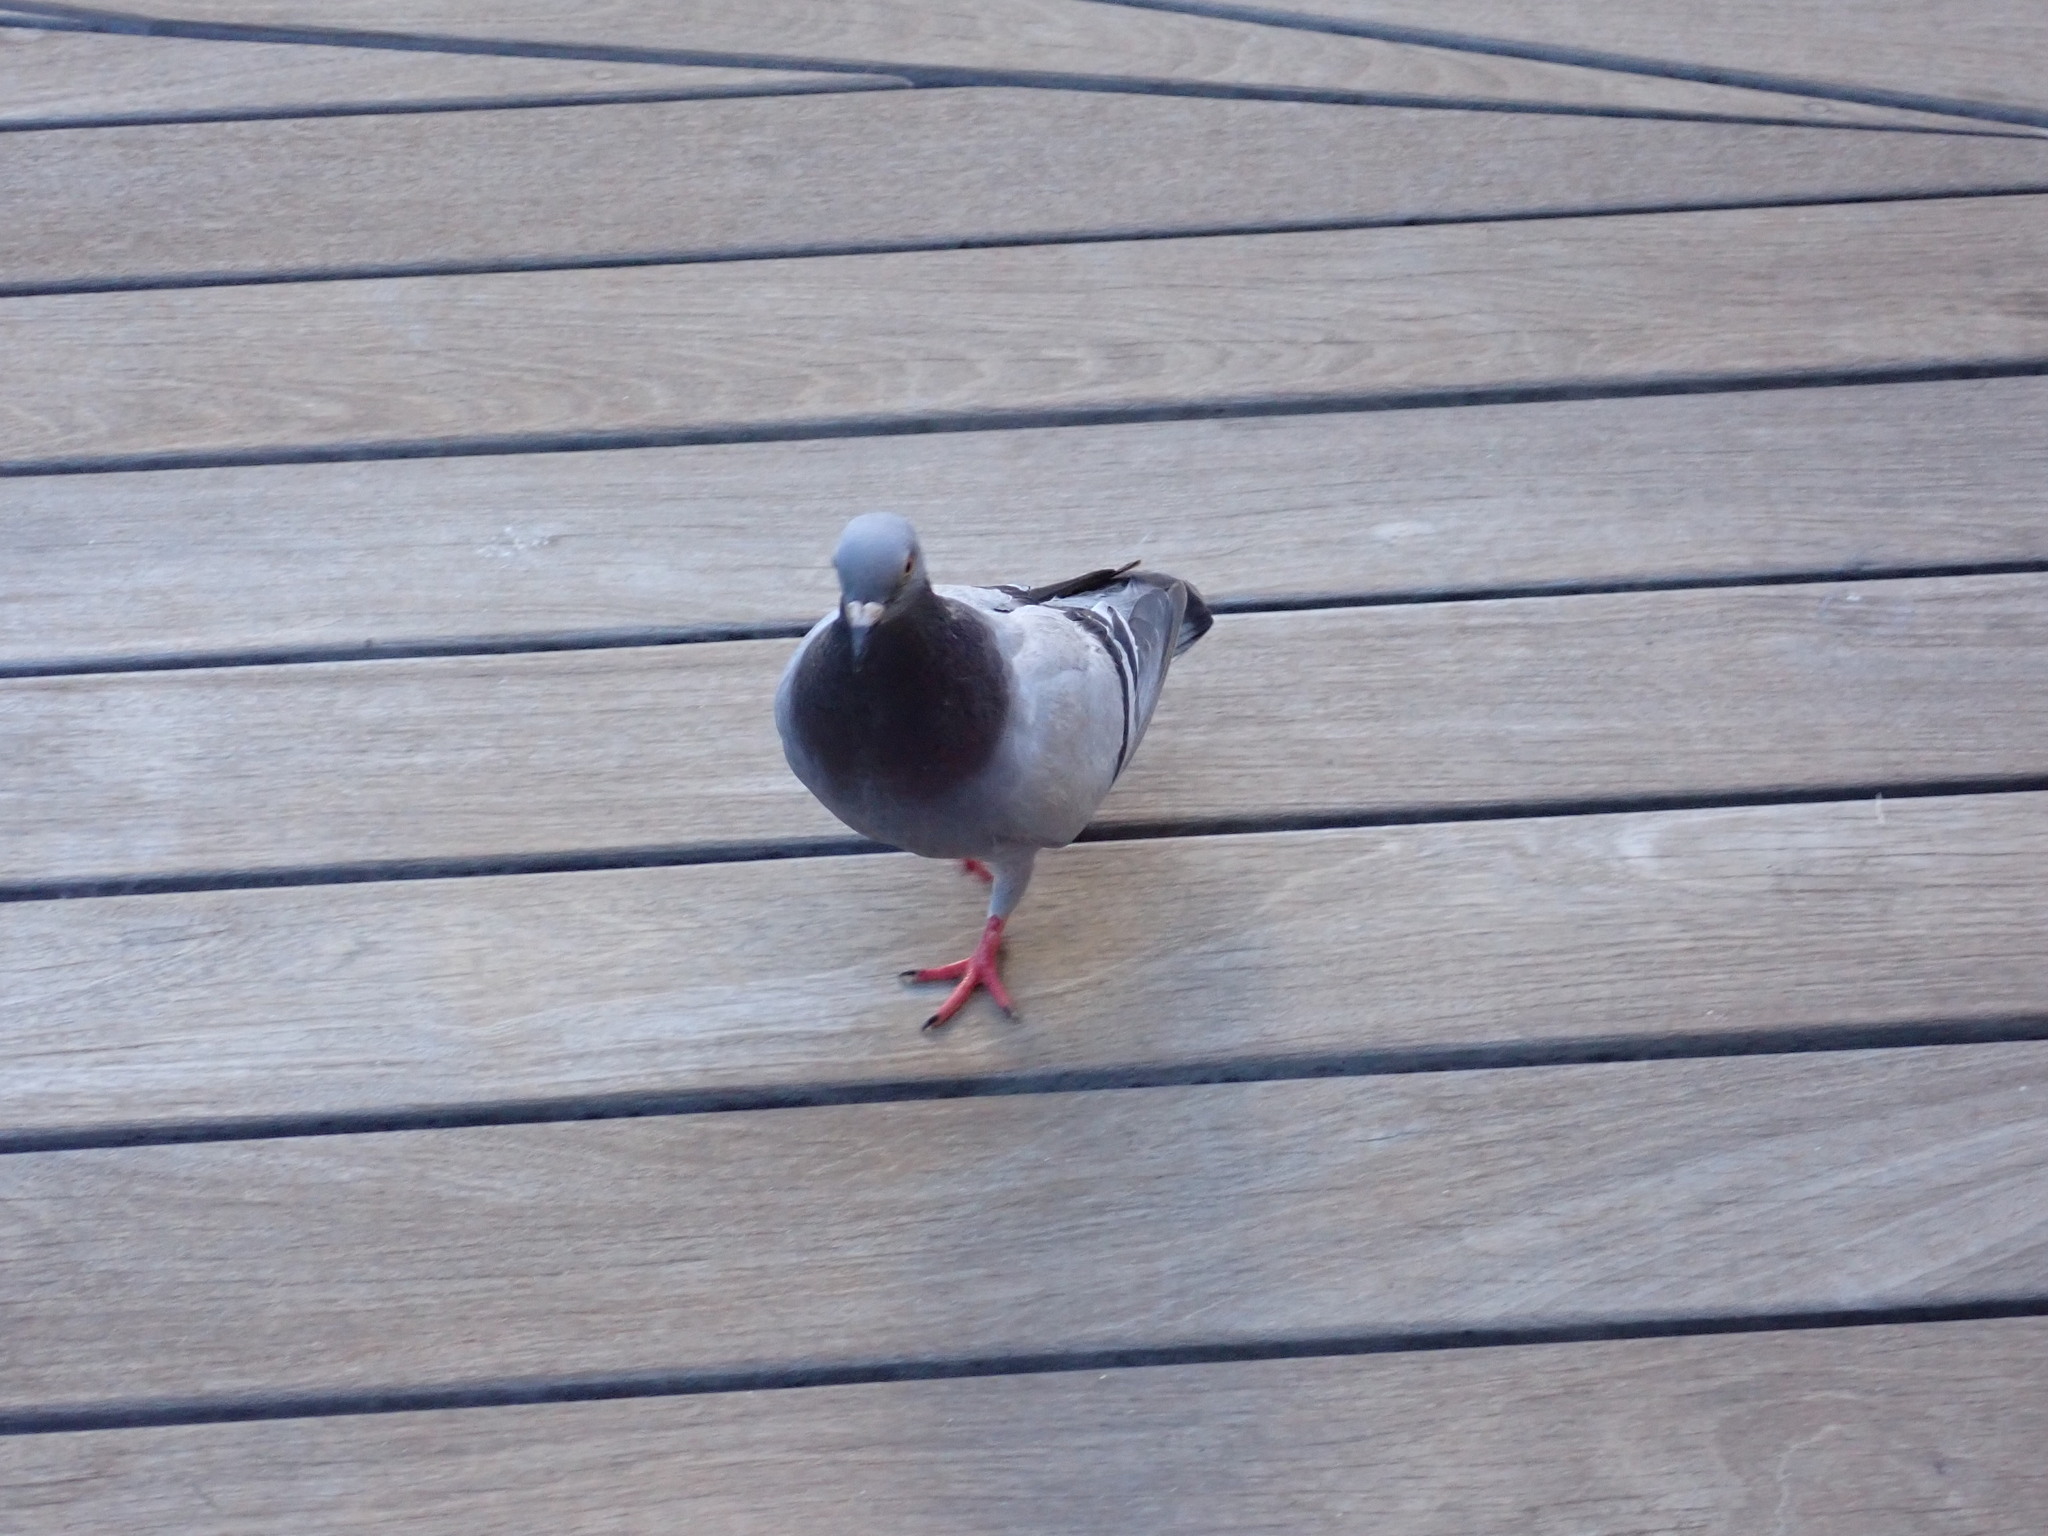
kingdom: Animalia
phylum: Chordata
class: Aves
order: Columbiformes
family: Columbidae
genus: Columba
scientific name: Columba livia
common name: Rock pigeon
